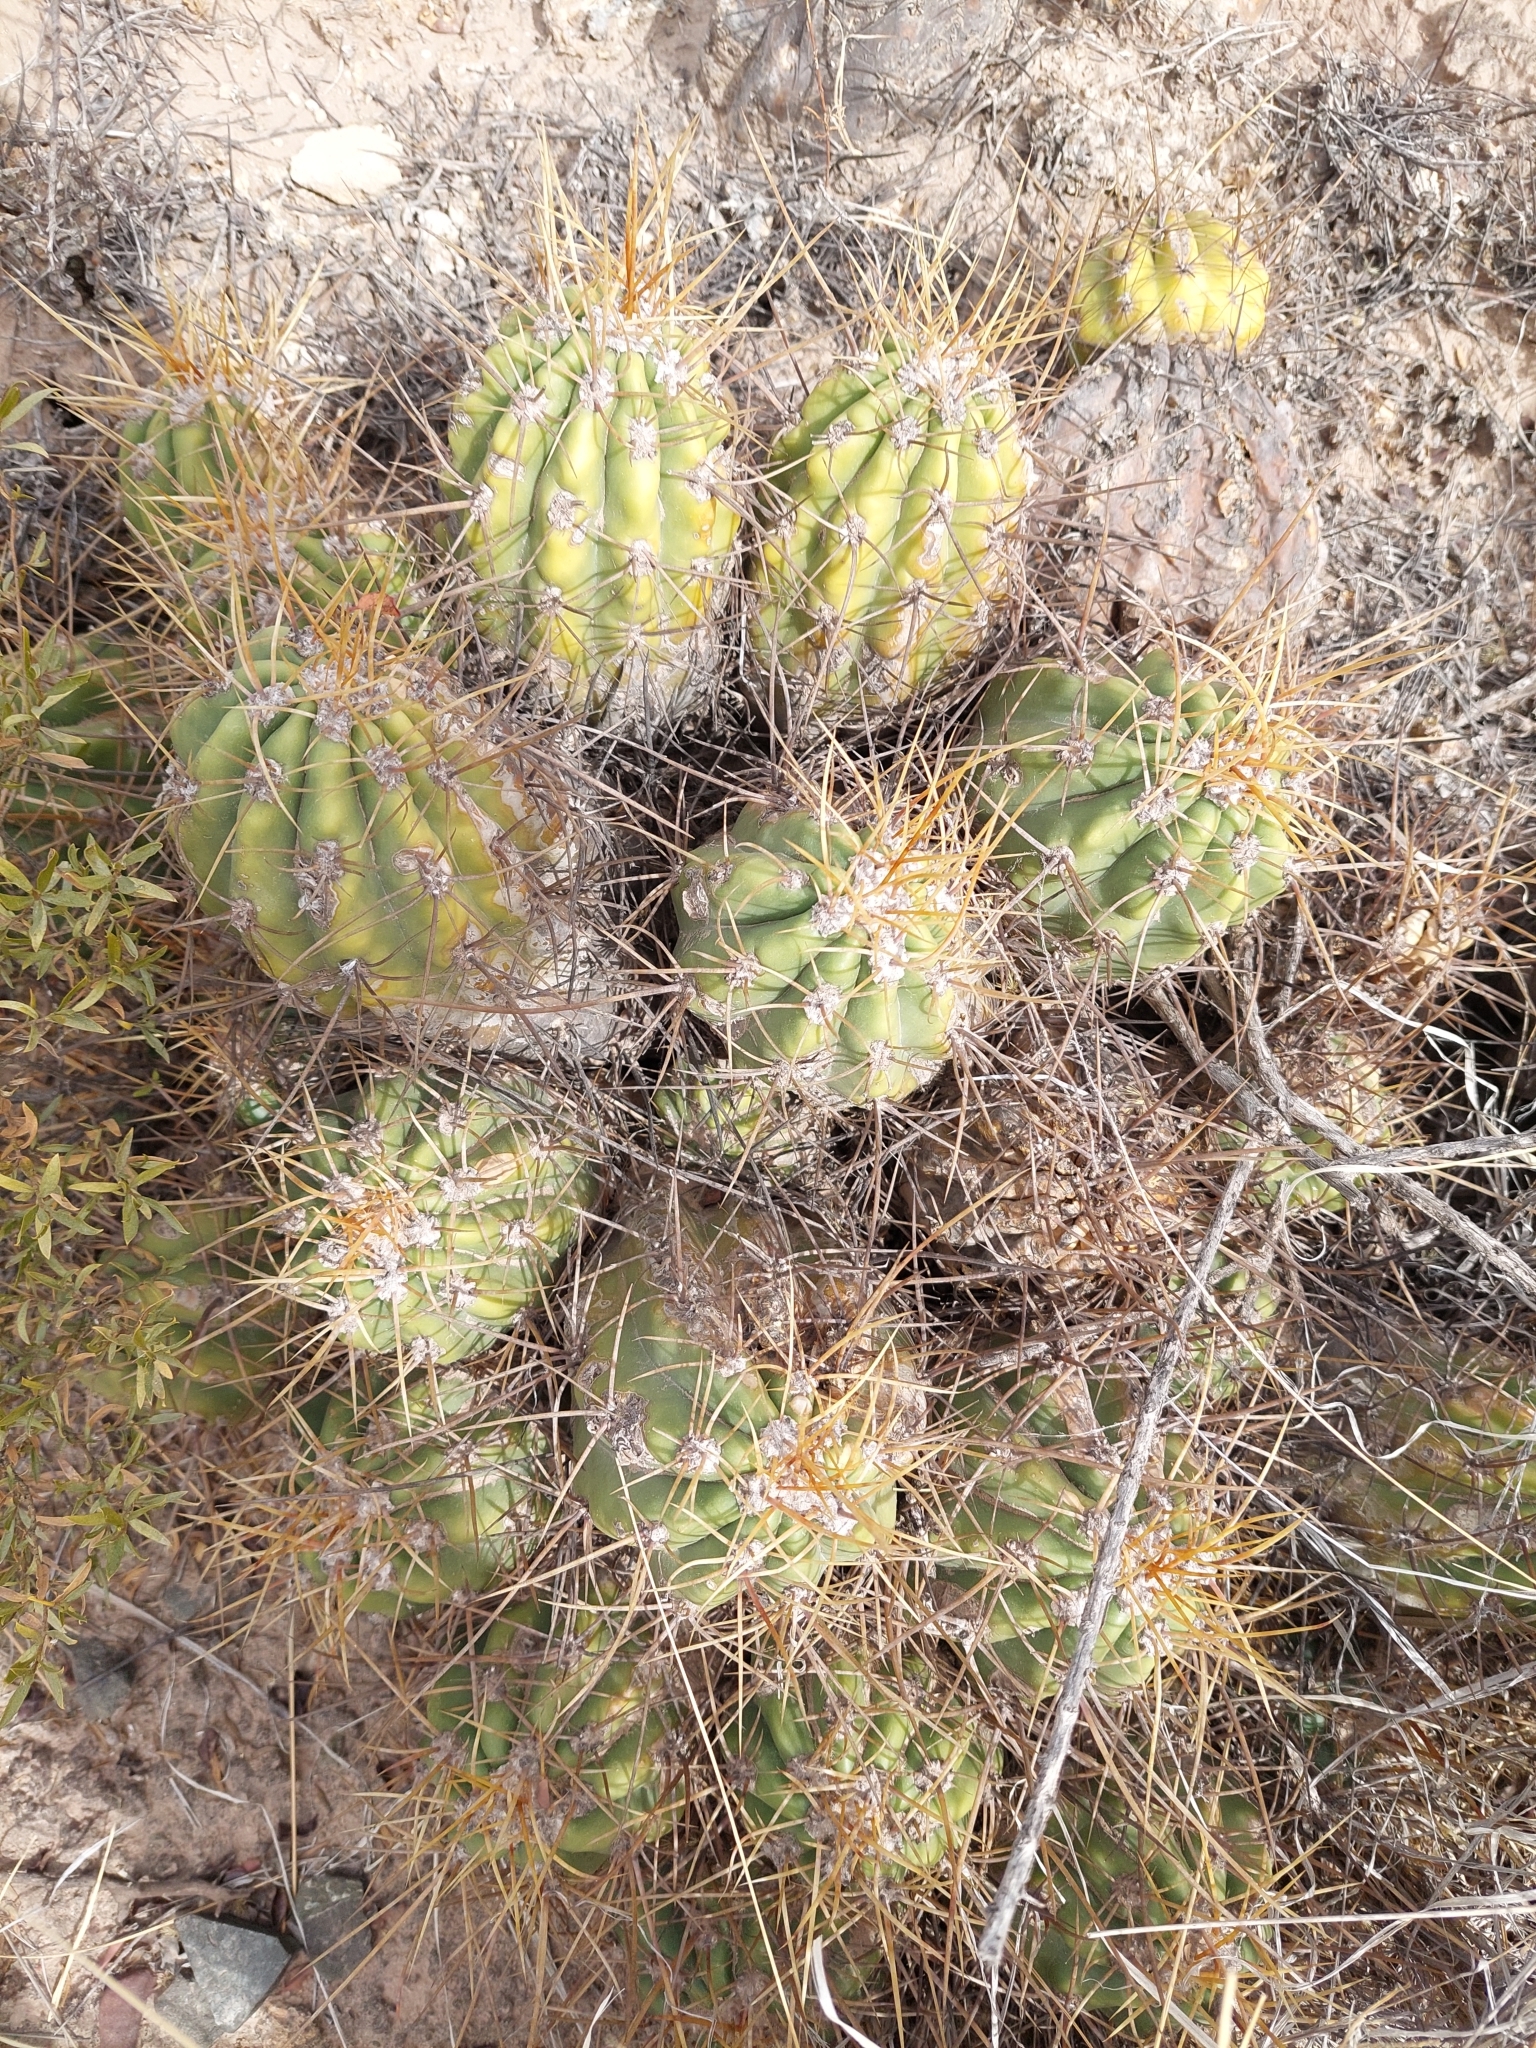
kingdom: Plantae
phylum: Tracheophyta
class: Magnoliopsida
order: Caryophyllales
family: Cactaceae
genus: Soehrensia
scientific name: Soehrensia candicans
